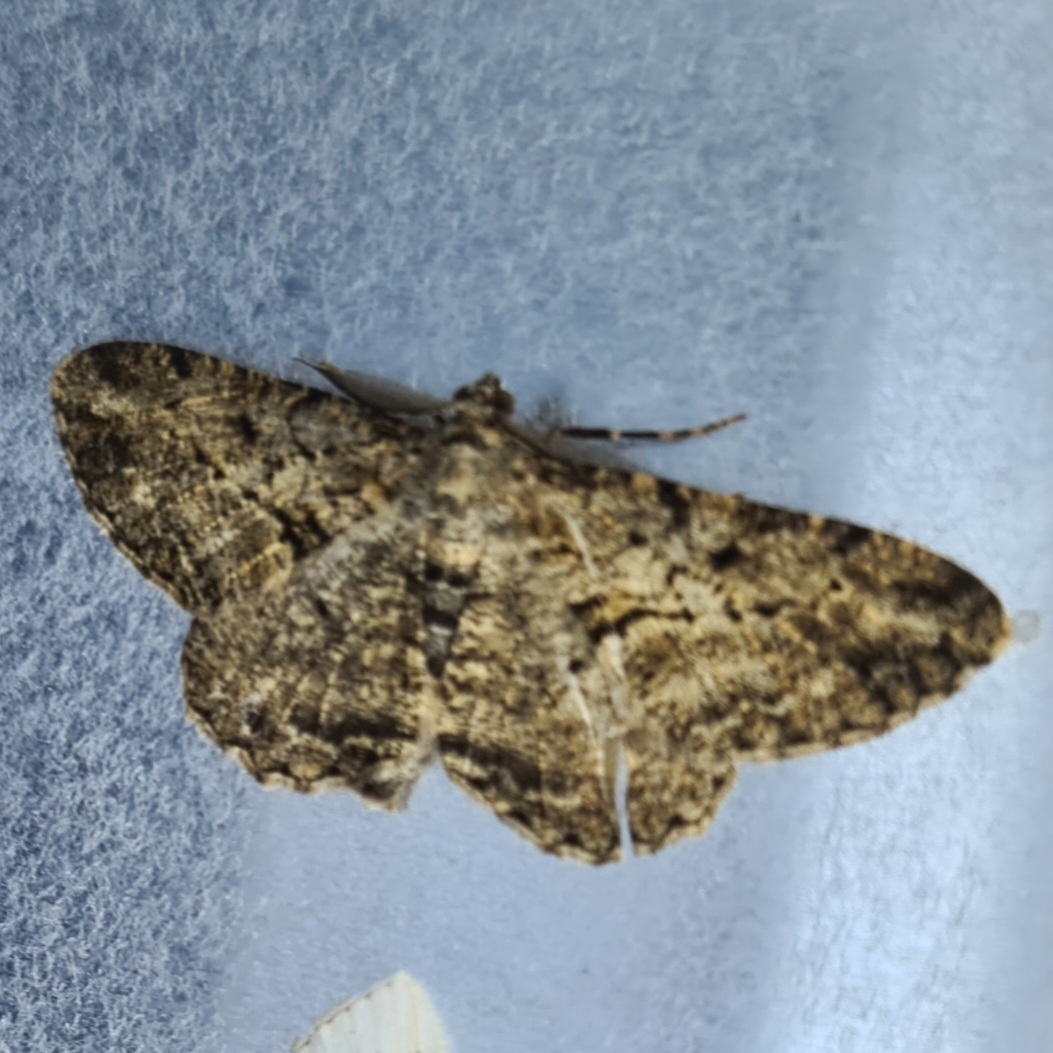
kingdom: Animalia
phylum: Arthropoda
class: Insecta
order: Lepidoptera
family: Geometridae
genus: Peribatodes
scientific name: Peribatodes rhomboidaria
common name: Willow beauty
